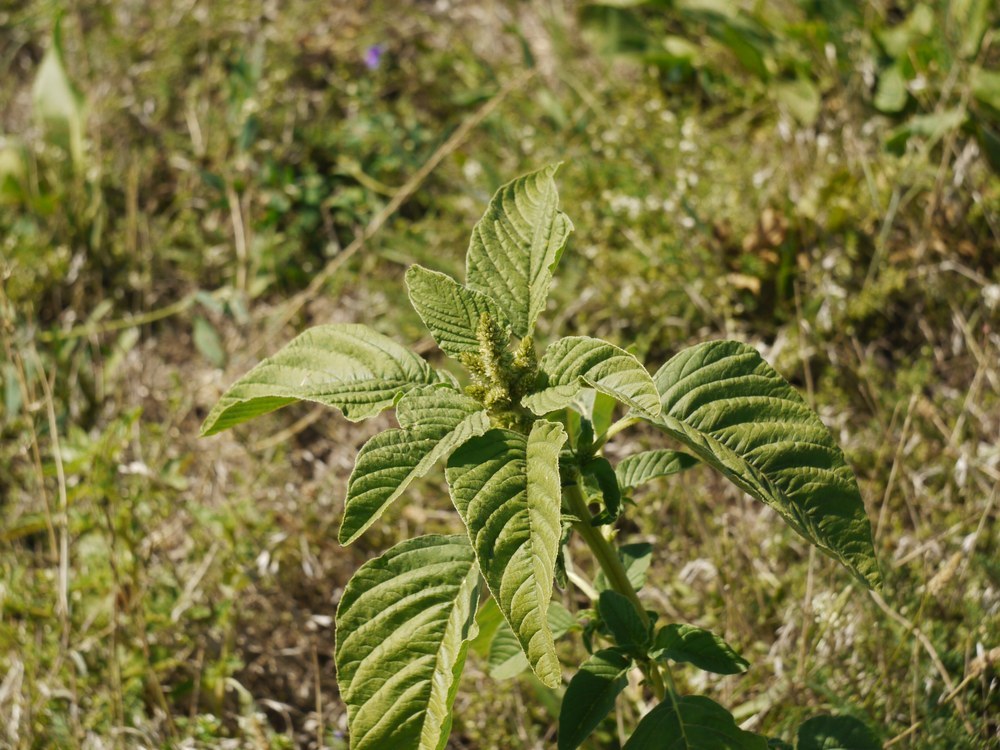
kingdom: Plantae
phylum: Tracheophyta
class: Magnoliopsida
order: Caryophyllales
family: Amaranthaceae
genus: Amaranthus
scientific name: Amaranthus retroflexus
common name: Redroot amaranth
